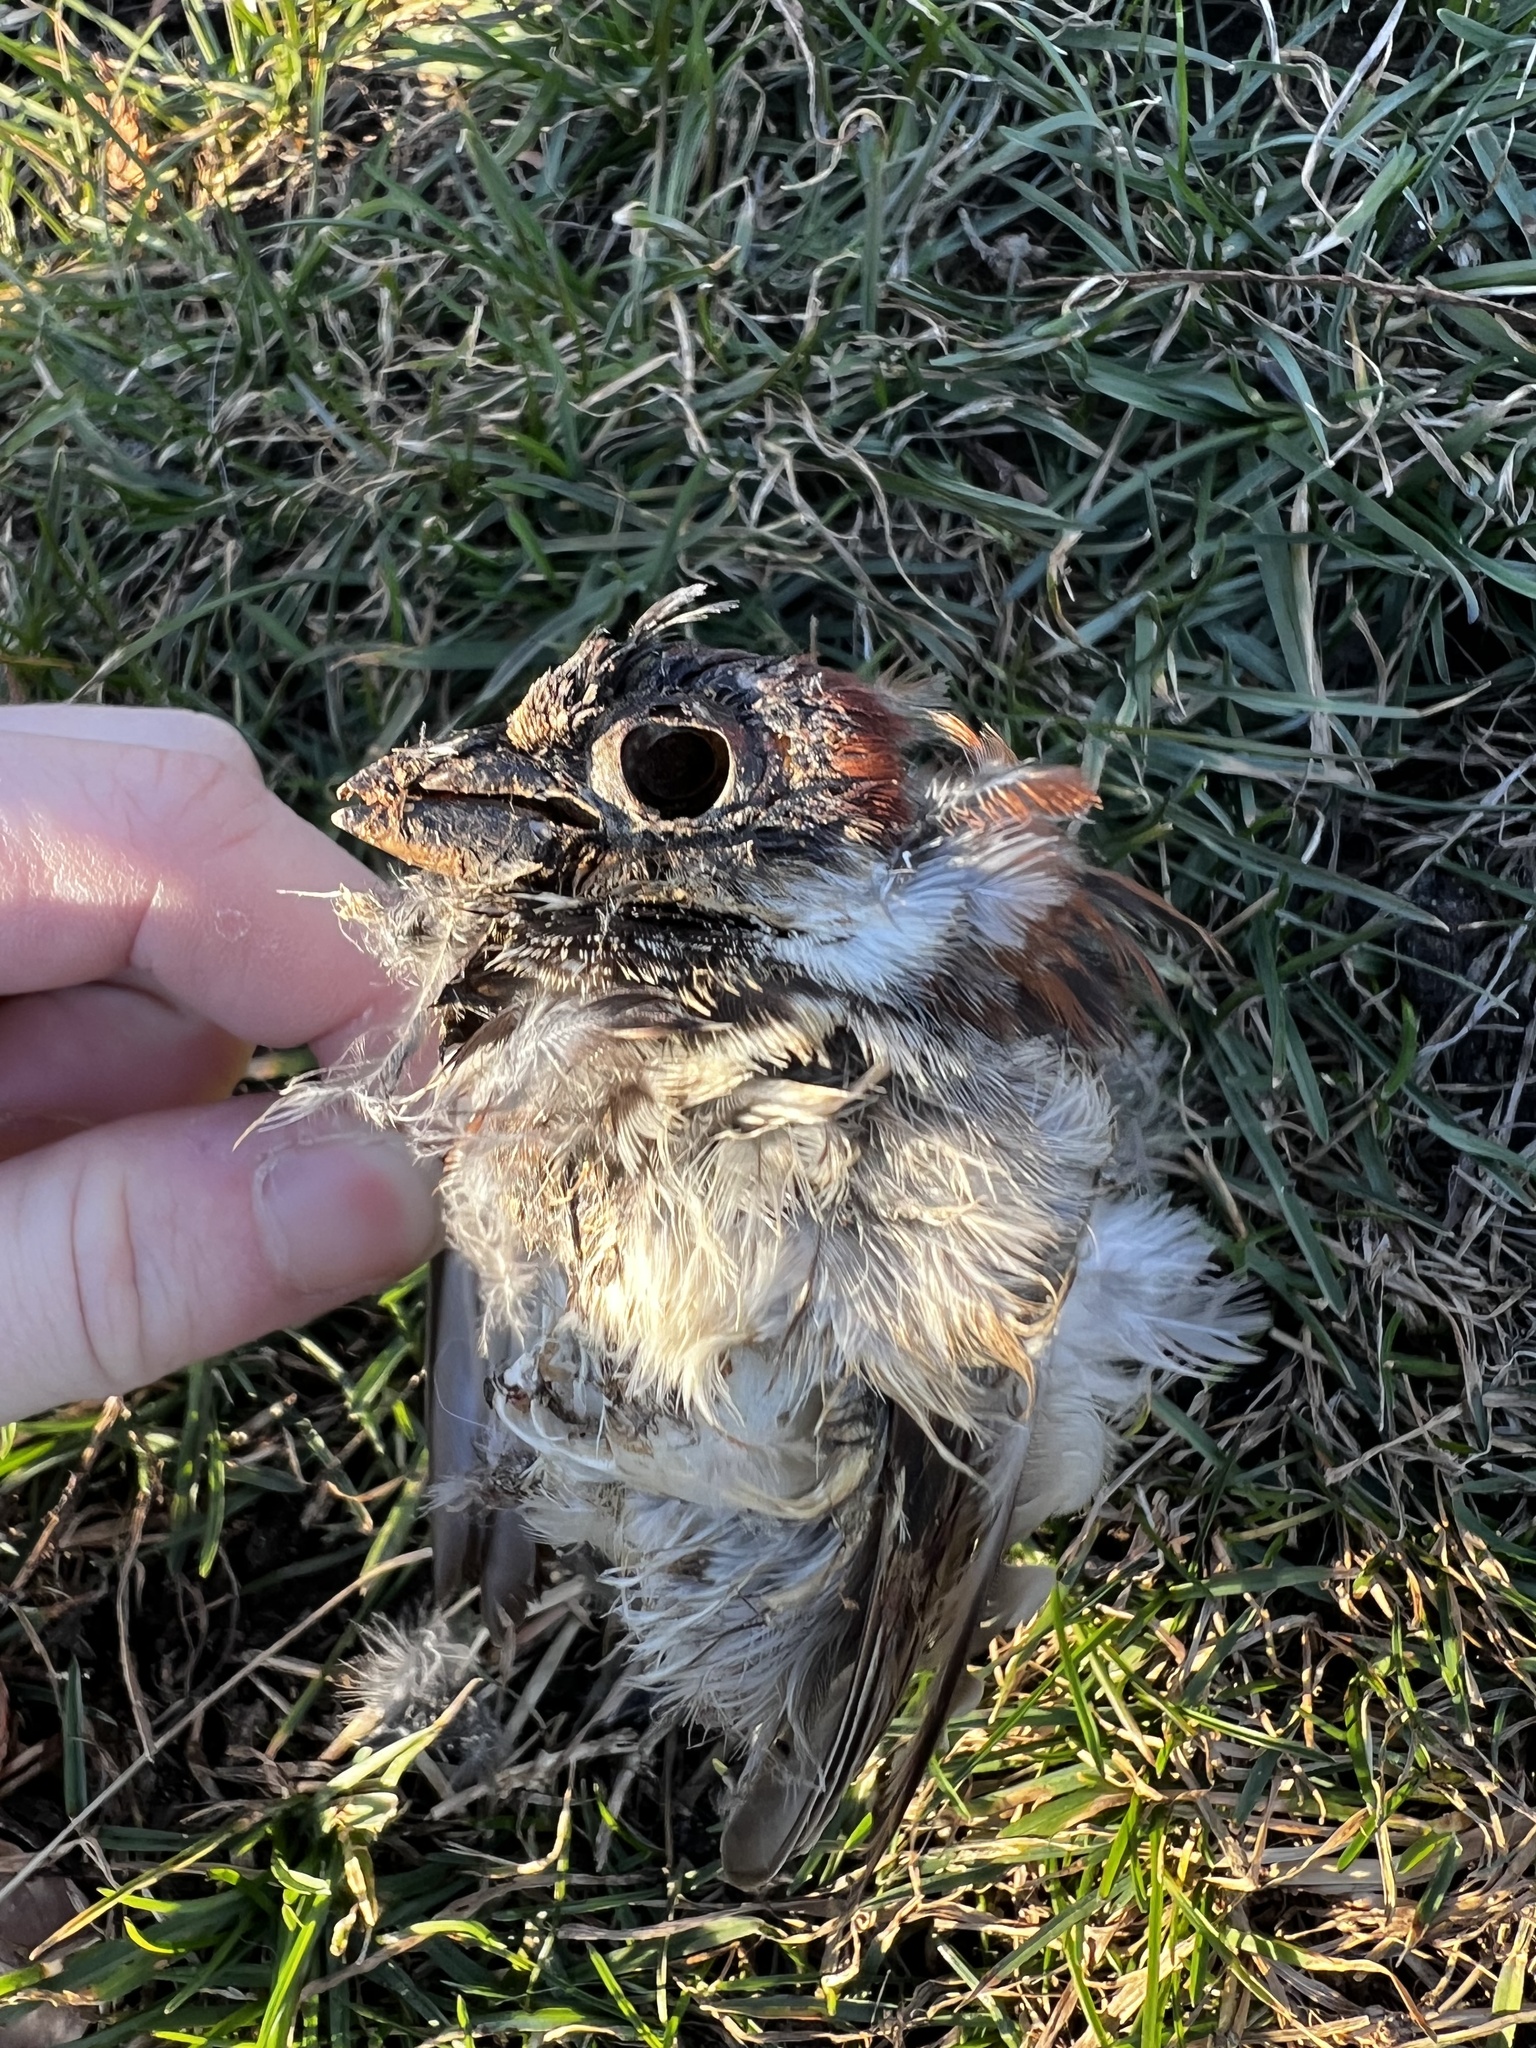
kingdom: Animalia
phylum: Chordata
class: Aves
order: Passeriformes
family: Passeridae
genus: Passer
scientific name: Passer domesticus
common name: House sparrow
